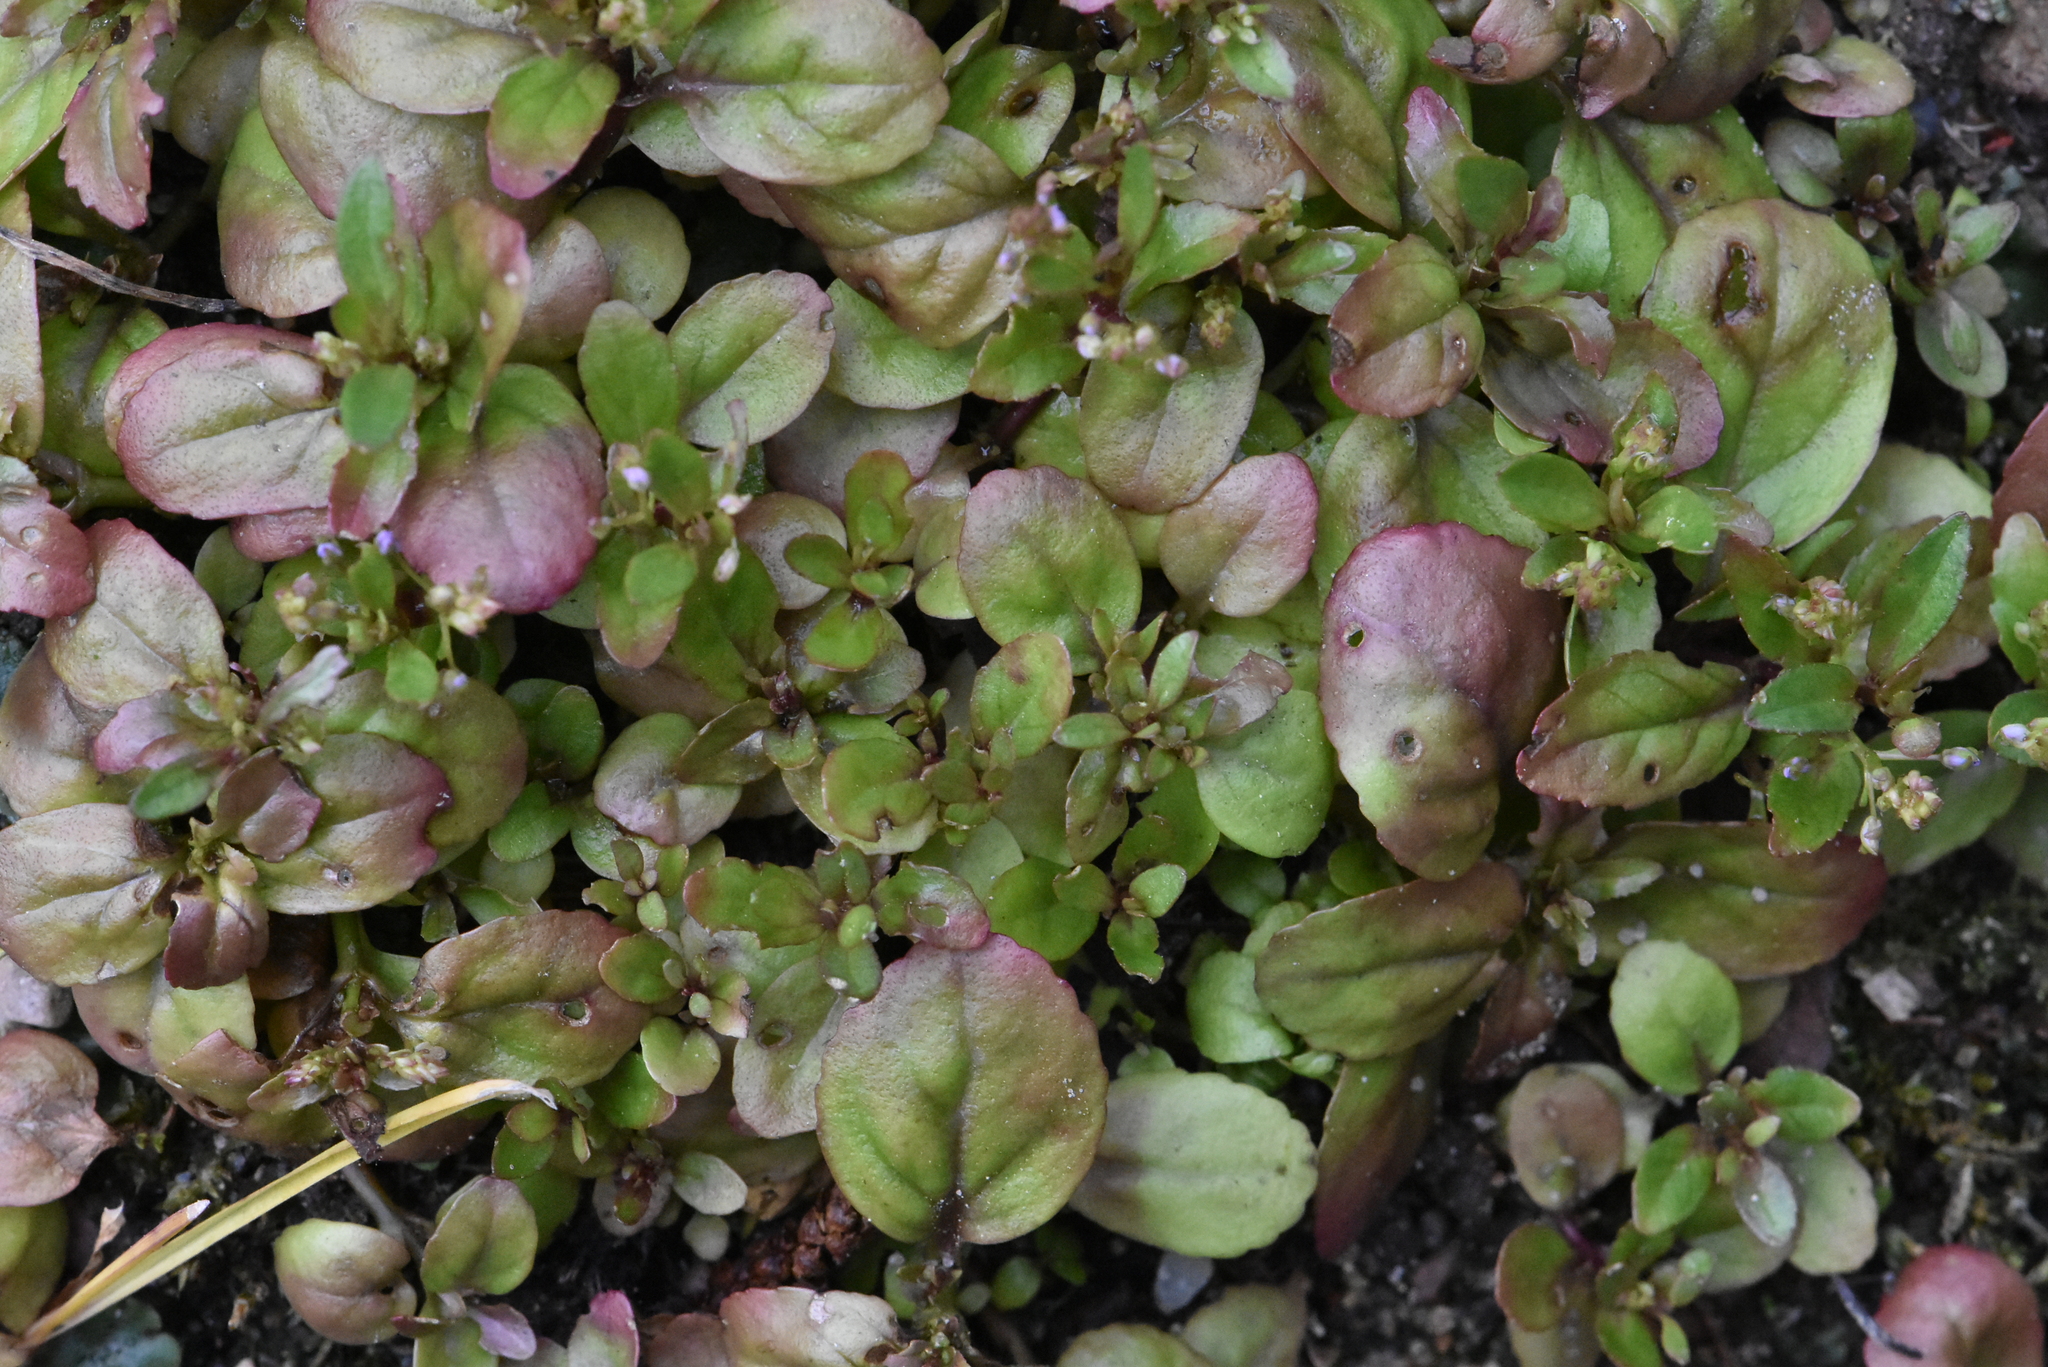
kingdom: Plantae
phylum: Tracheophyta
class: Magnoliopsida
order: Lamiales
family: Plantaginaceae
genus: Veronica
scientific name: Veronica beccabunga
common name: Brooklime
